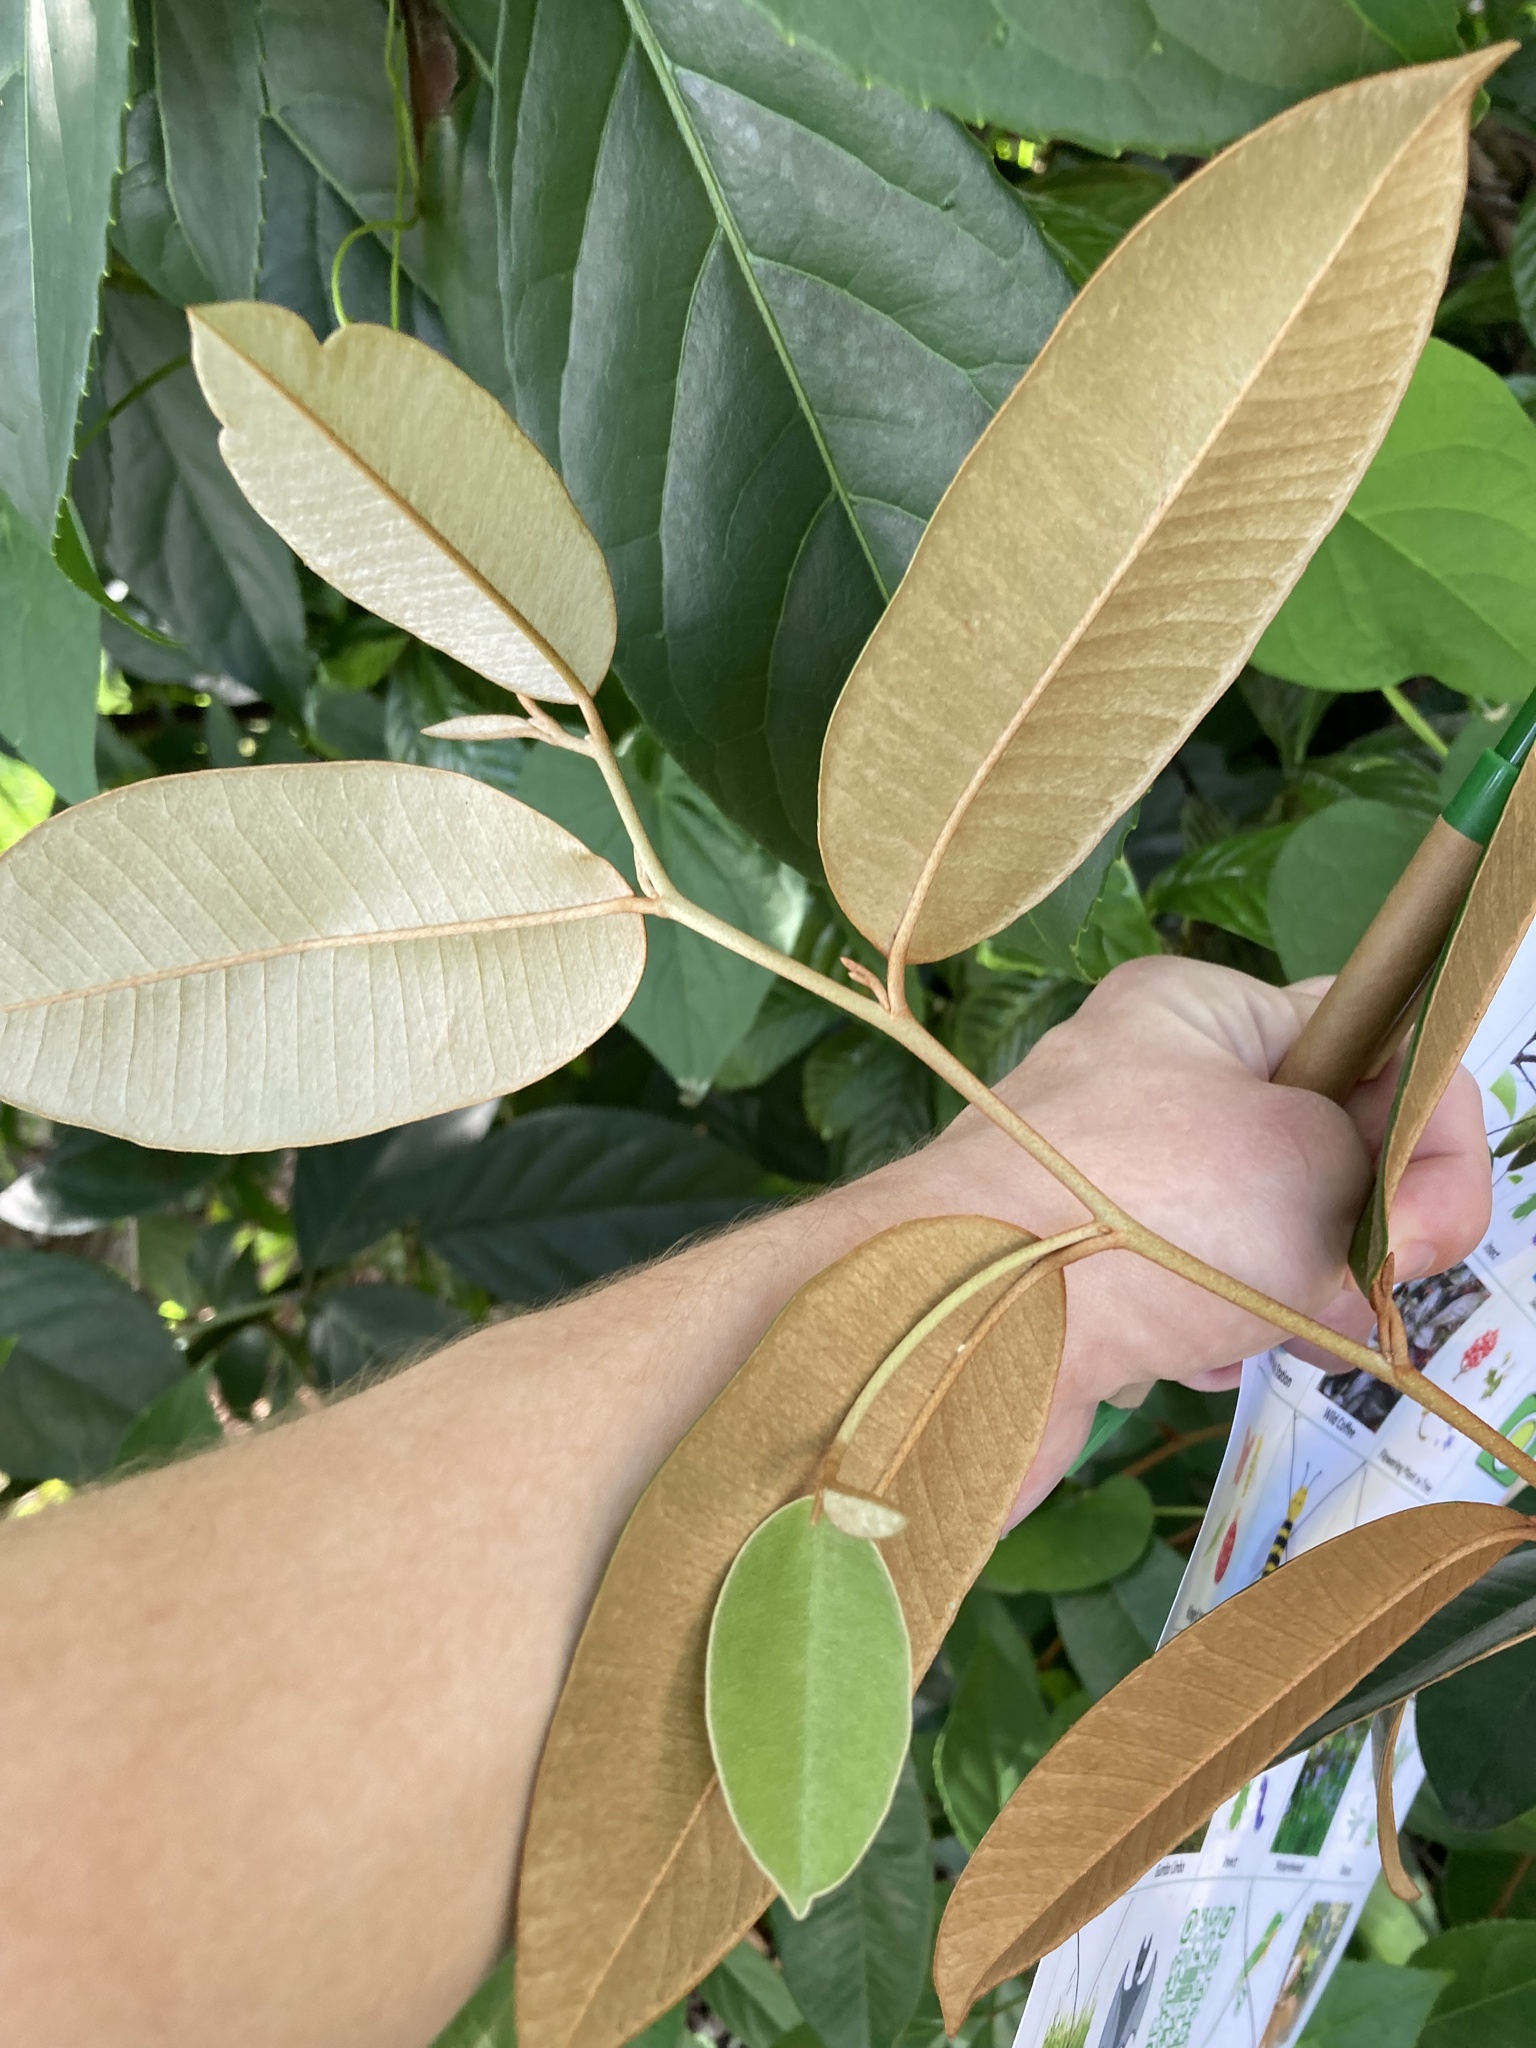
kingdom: Plantae
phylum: Tracheophyta
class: Magnoliopsida
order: Ericales
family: Sapotaceae
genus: Chrysophyllum
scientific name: Chrysophyllum oliviforme
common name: Satinleaf
